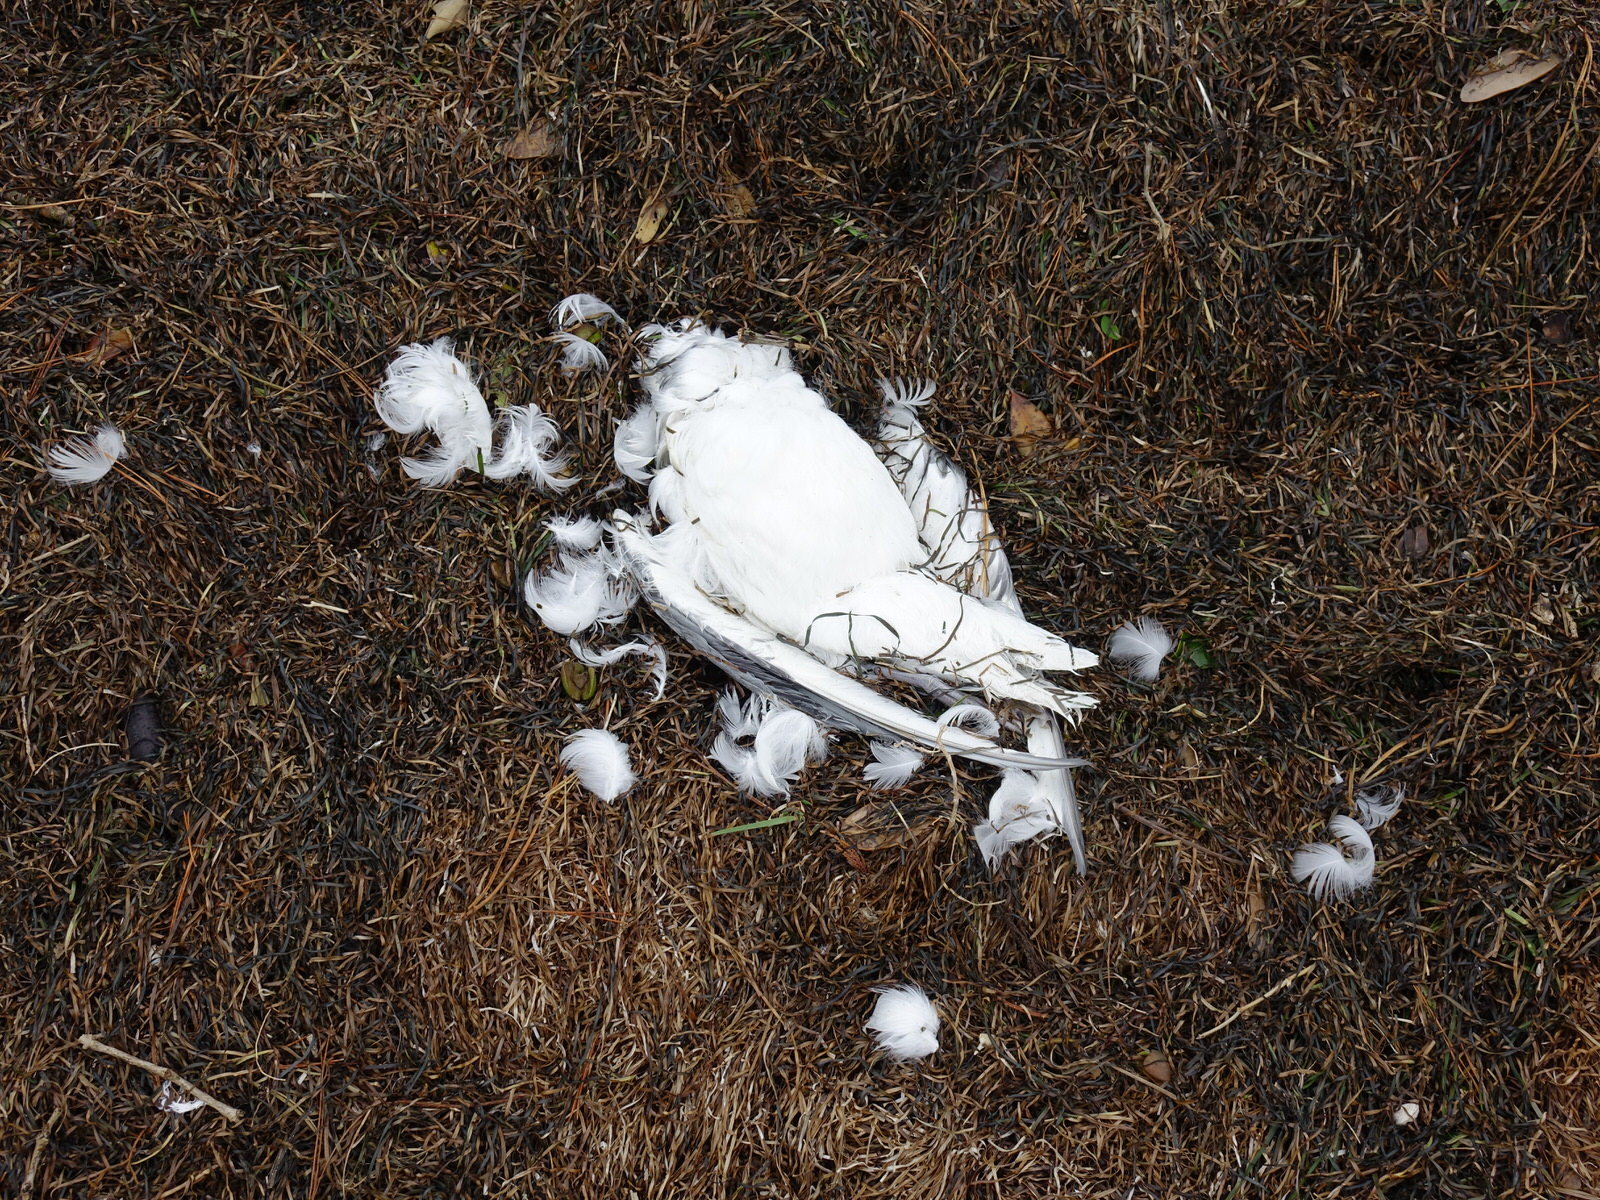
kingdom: Animalia
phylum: Chordata
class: Aves
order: Procellariiformes
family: Procellariidae
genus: Fulmarus
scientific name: Fulmarus glacialoides
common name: Southern fulmar
